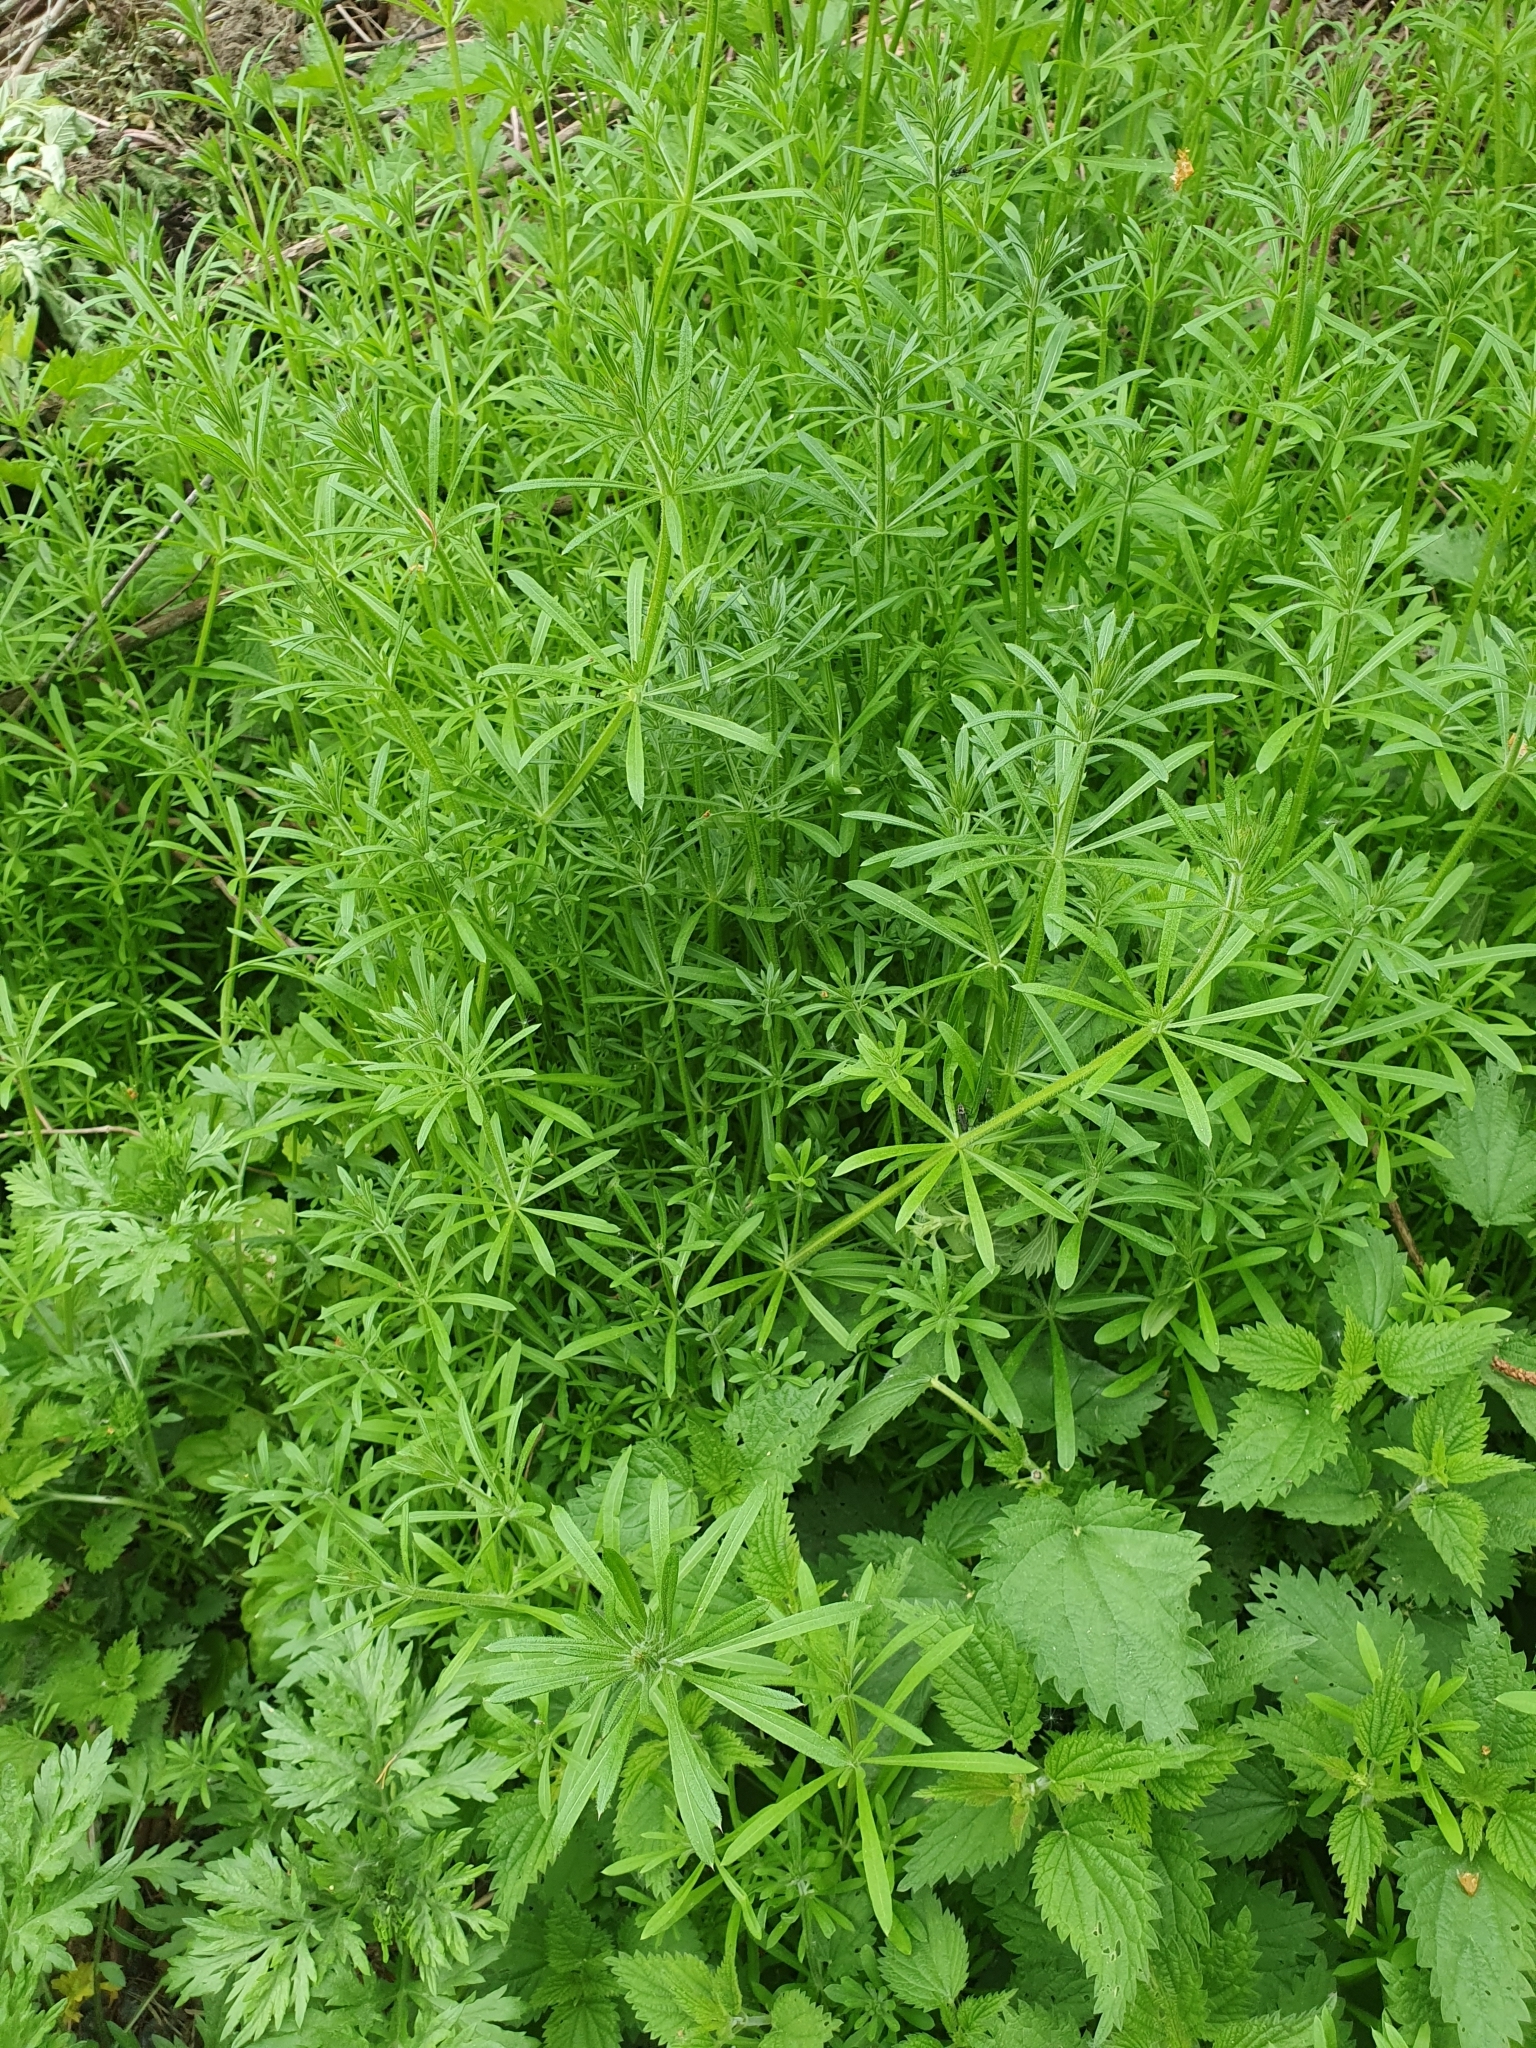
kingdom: Plantae
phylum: Tracheophyta
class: Magnoliopsida
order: Gentianales
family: Rubiaceae
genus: Galium
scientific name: Galium aparine
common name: Cleavers
